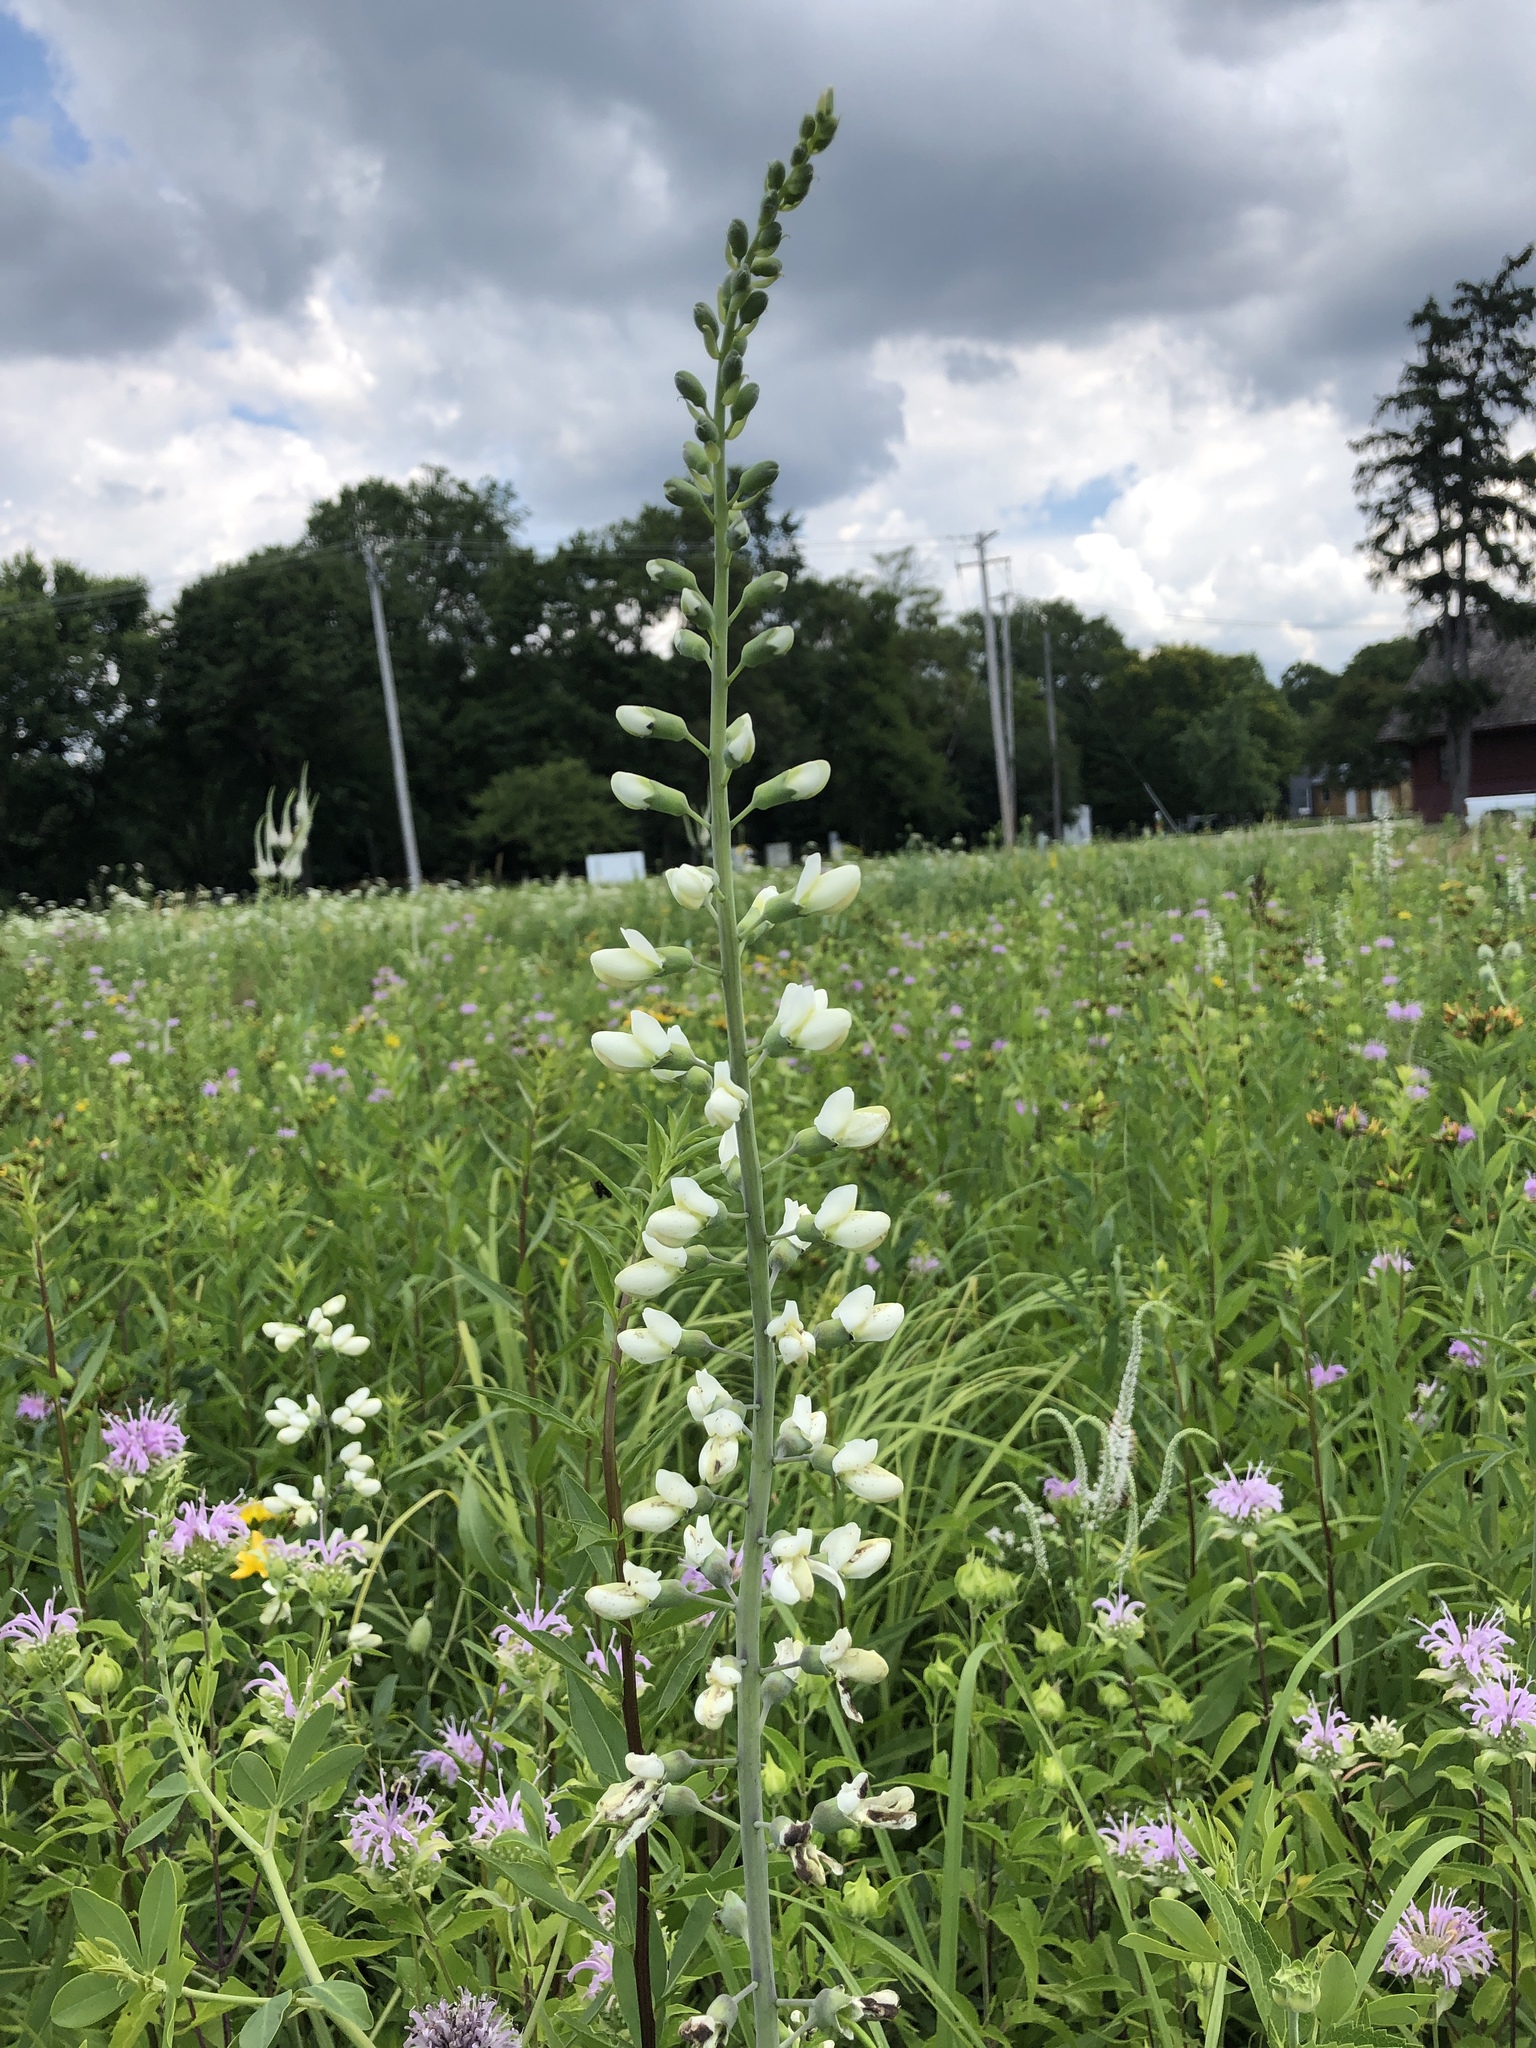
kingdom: Plantae
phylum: Tracheophyta
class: Magnoliopsida
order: Fabales
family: Fabaceae
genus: Baptisia
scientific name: Baptisia alba
